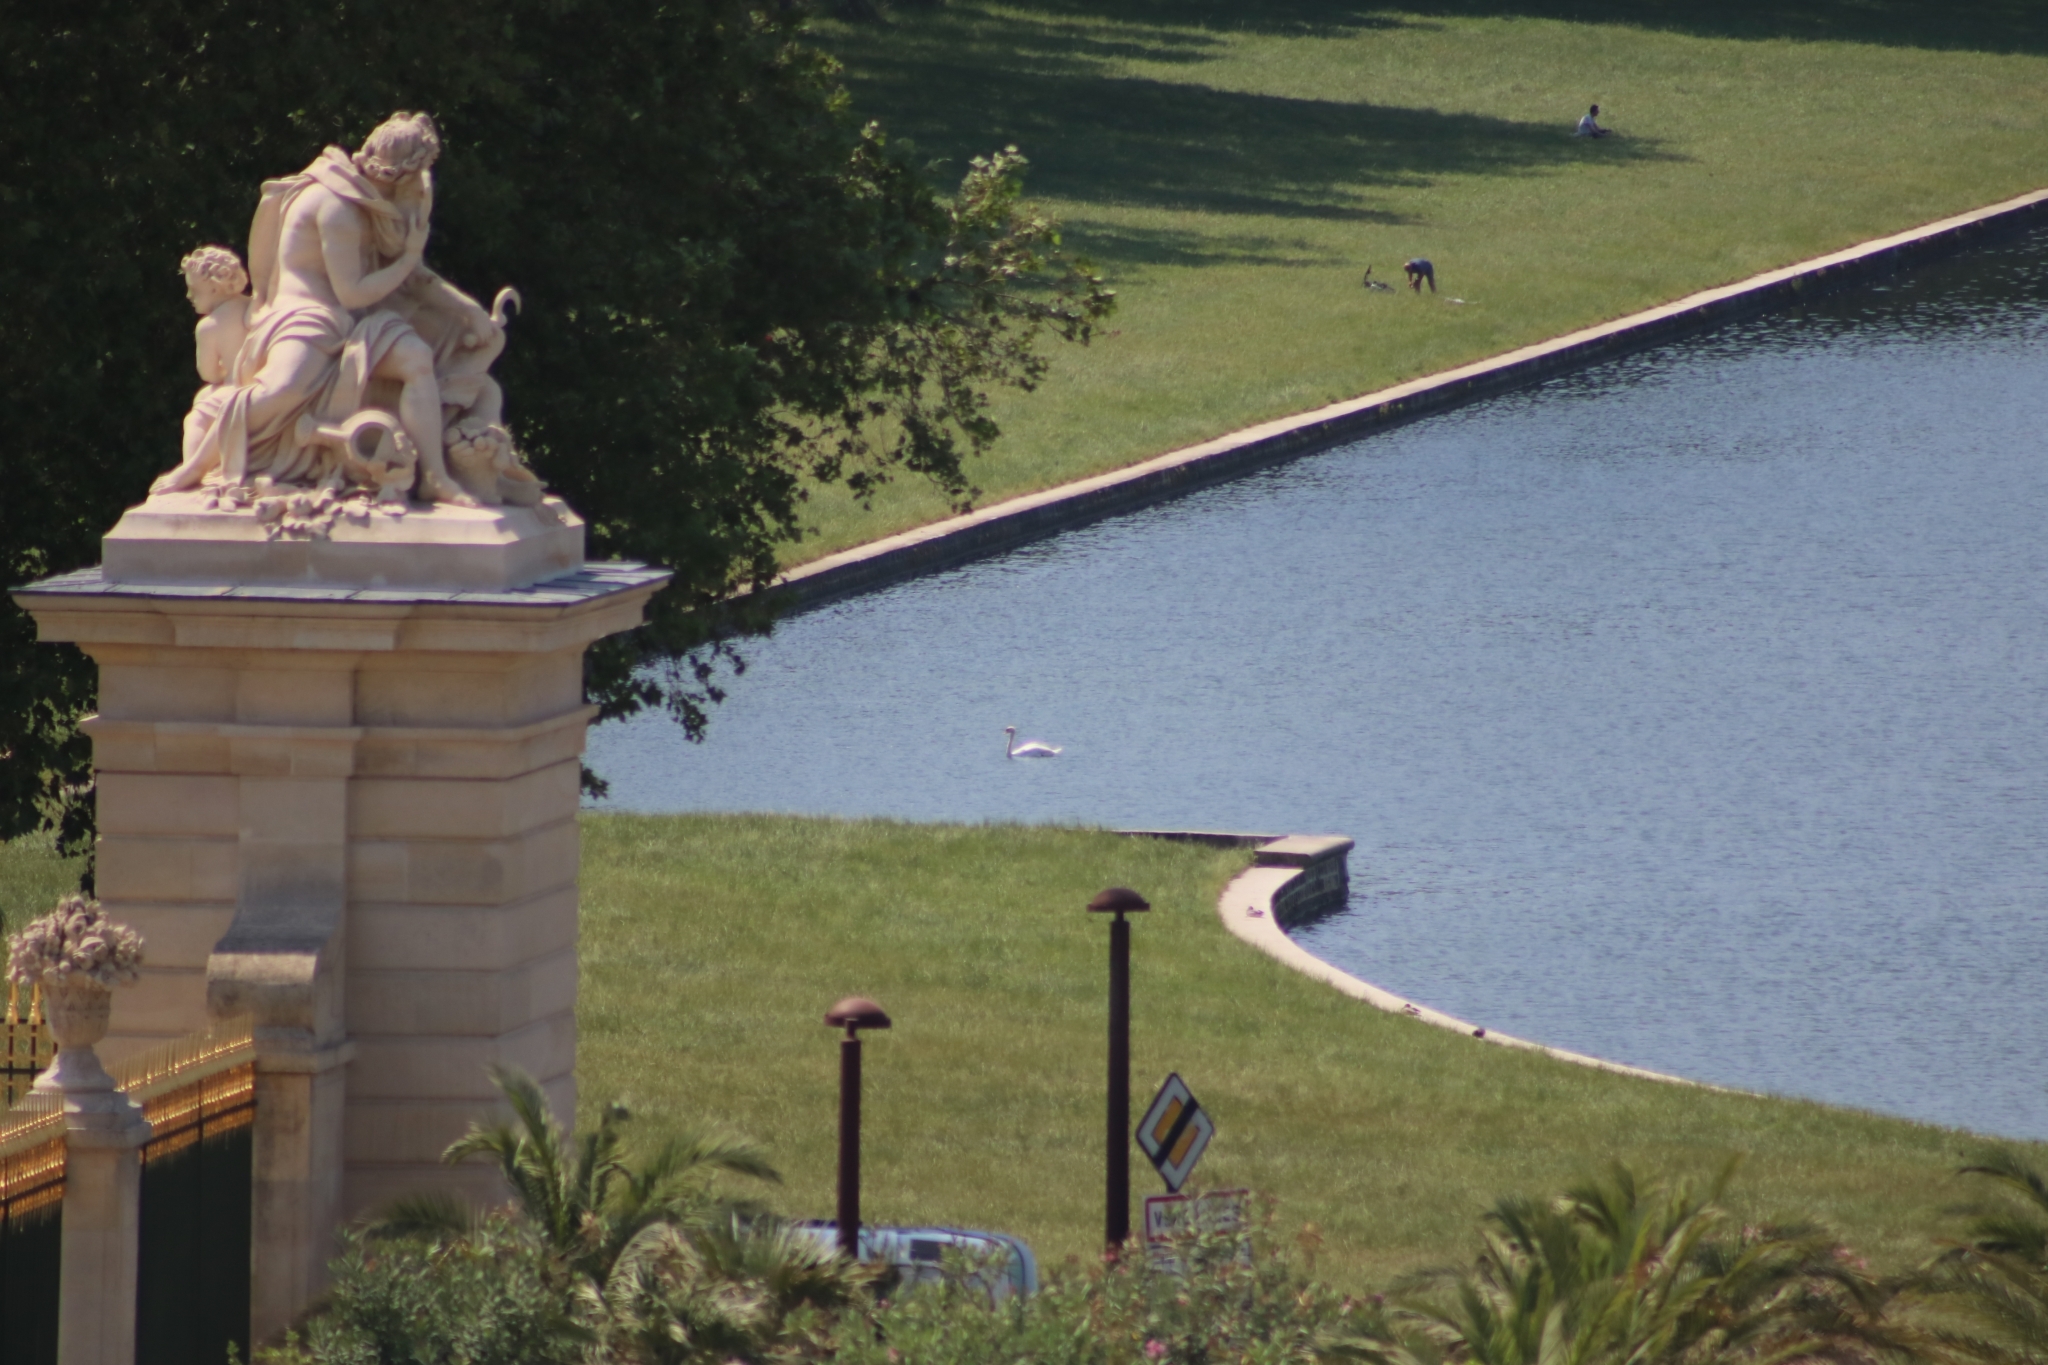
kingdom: Animalia
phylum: Chordata
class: Aves
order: Anseriformes
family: Anatidae
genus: Cygnus
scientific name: Cygnus olor
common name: Mute swan
